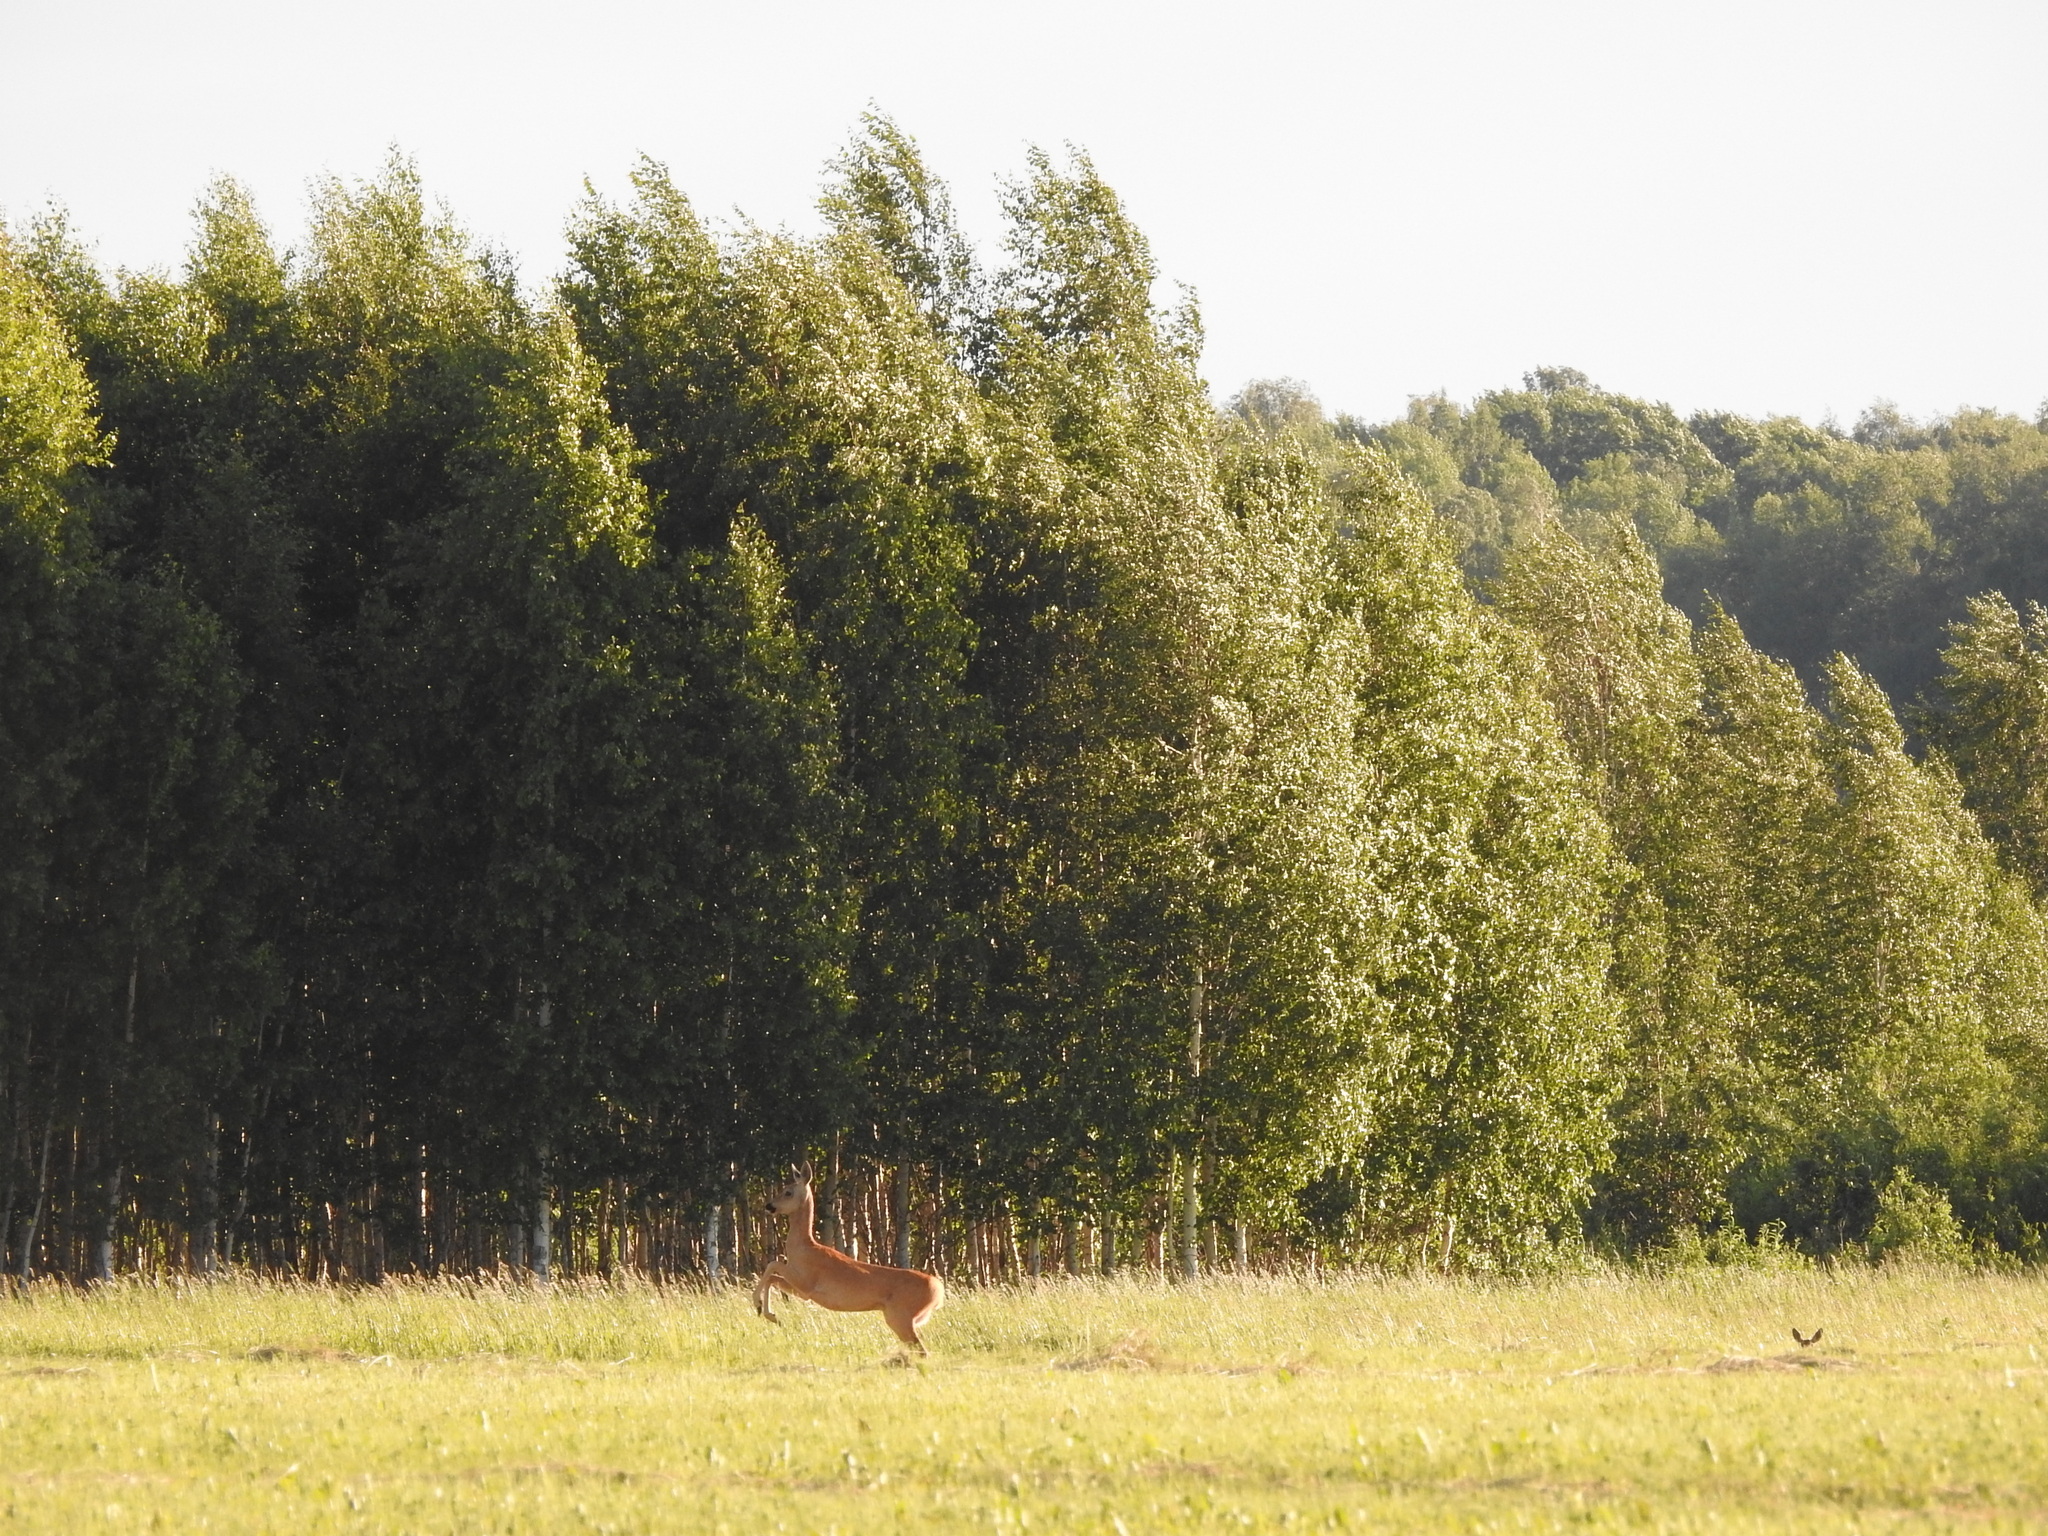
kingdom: Animalia
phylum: Chordata
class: Mammalia
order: Artiodactyla
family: Cervidae
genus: Capreolus
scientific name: Capreolus pygargus
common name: Siberian roe
